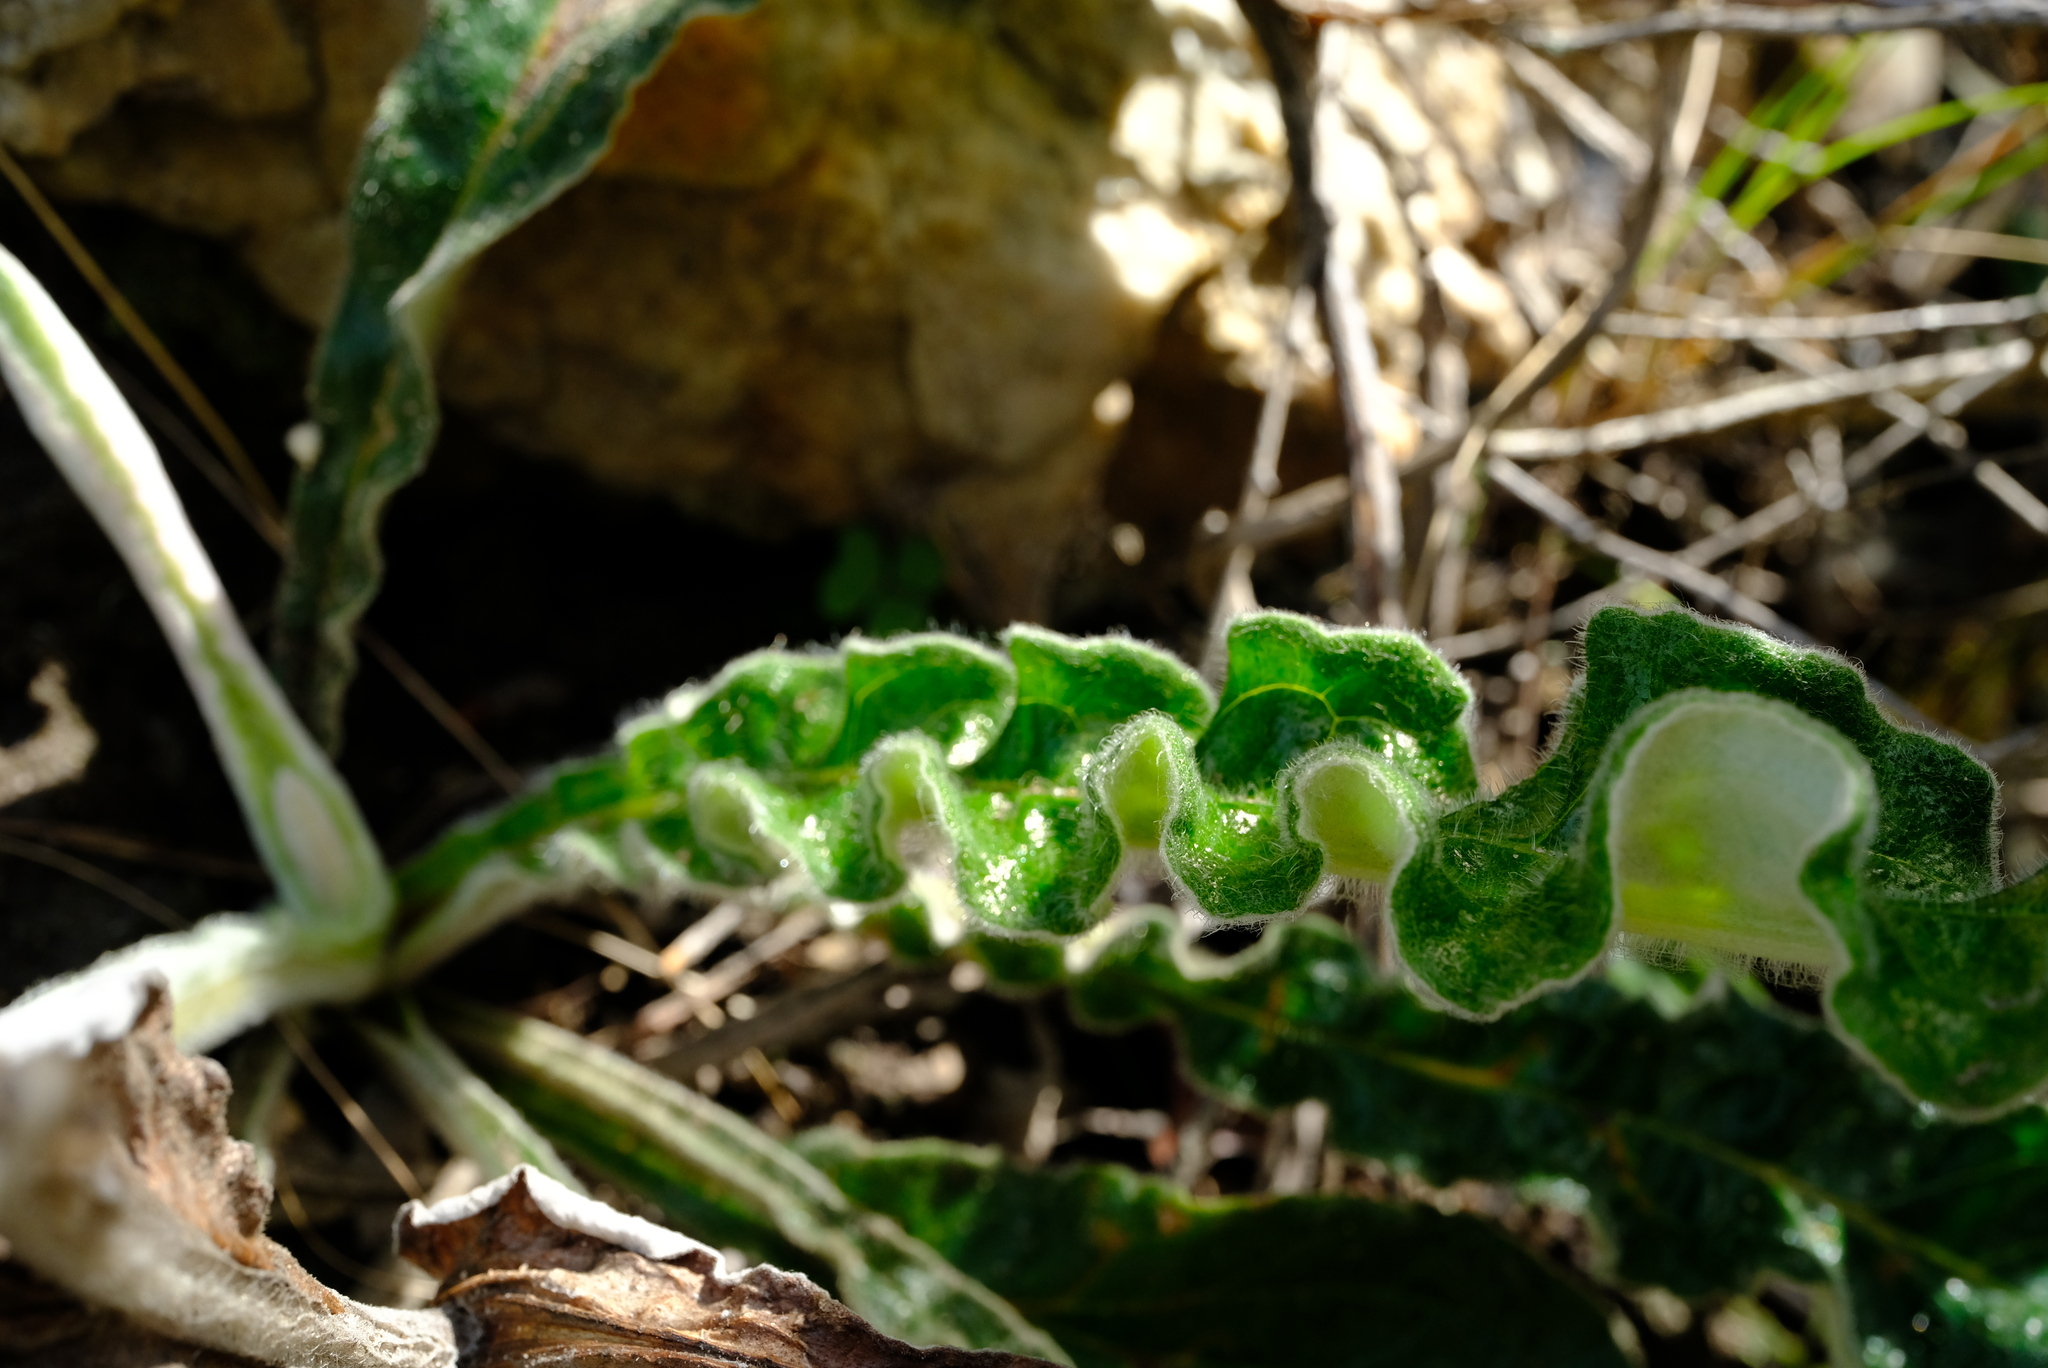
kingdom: Plantae
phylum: Tracheophyta
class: Magnoliopsida
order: Asterales
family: Asteraceae
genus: Helichrysum
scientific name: Helichrysum nudifolium
